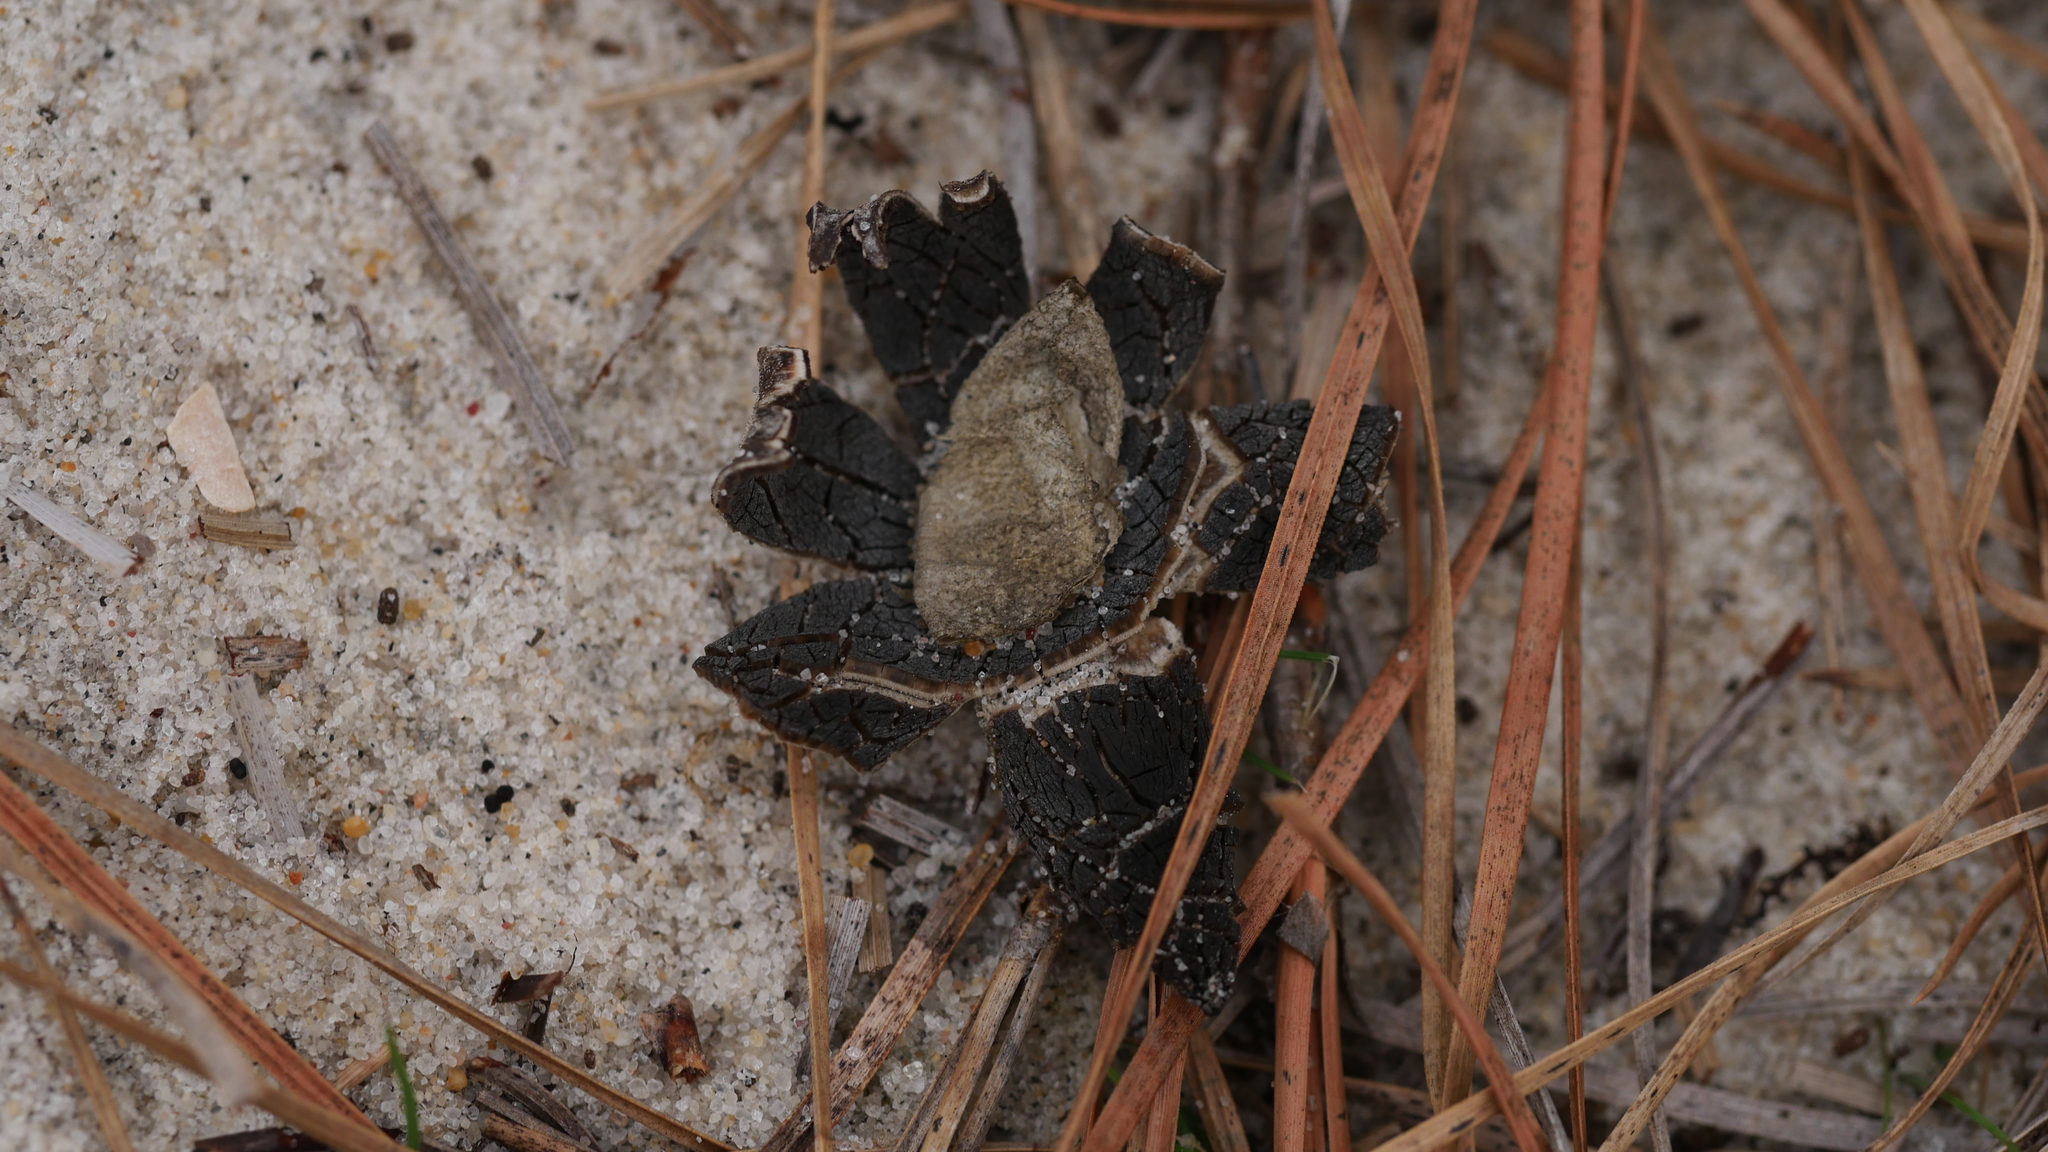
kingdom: Fungi
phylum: Basidiomycota
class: Agaricomycetes
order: Boletales
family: Diplocystidiaceae
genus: Astraeus
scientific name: Astraeus smithii
